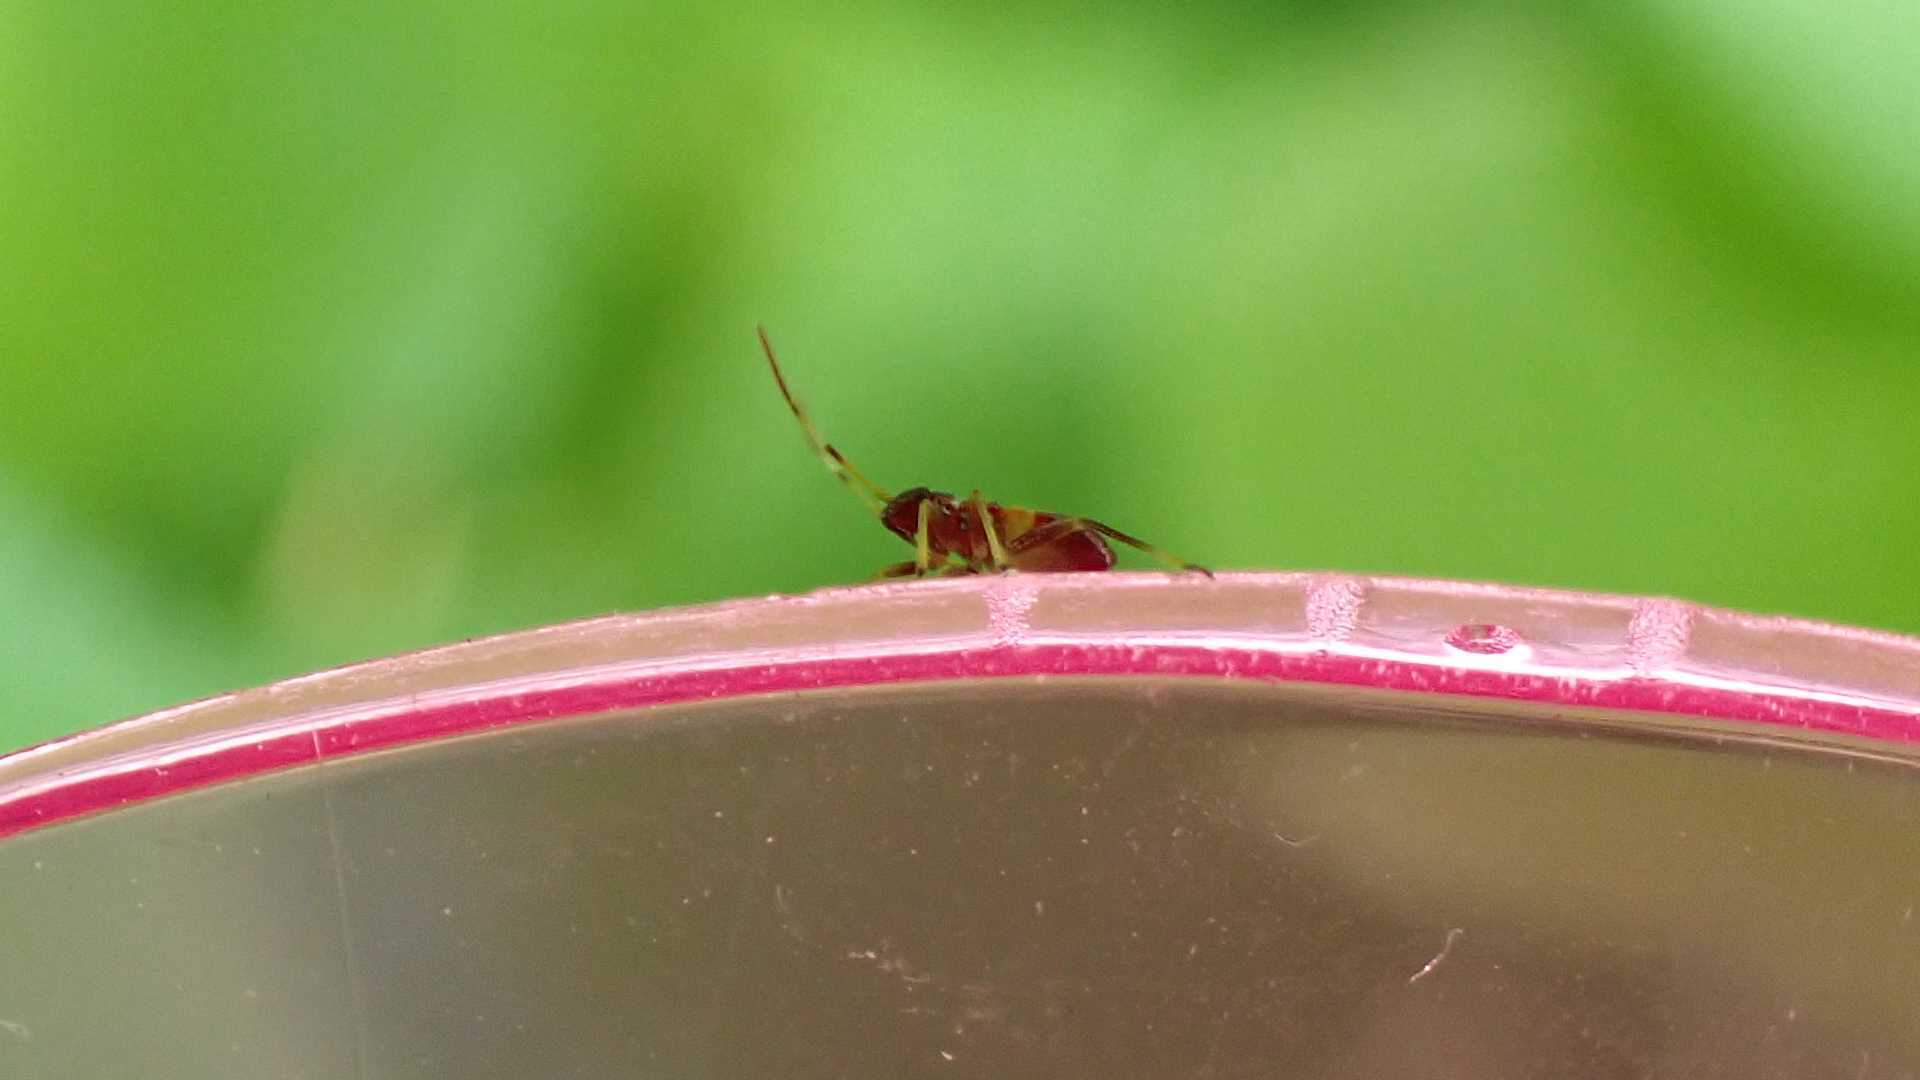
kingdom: Animalia
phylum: Arthropoda
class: Insecta
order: Hemiptera
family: Miridae
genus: Closterotomus
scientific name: Closterotomus biclavatus
